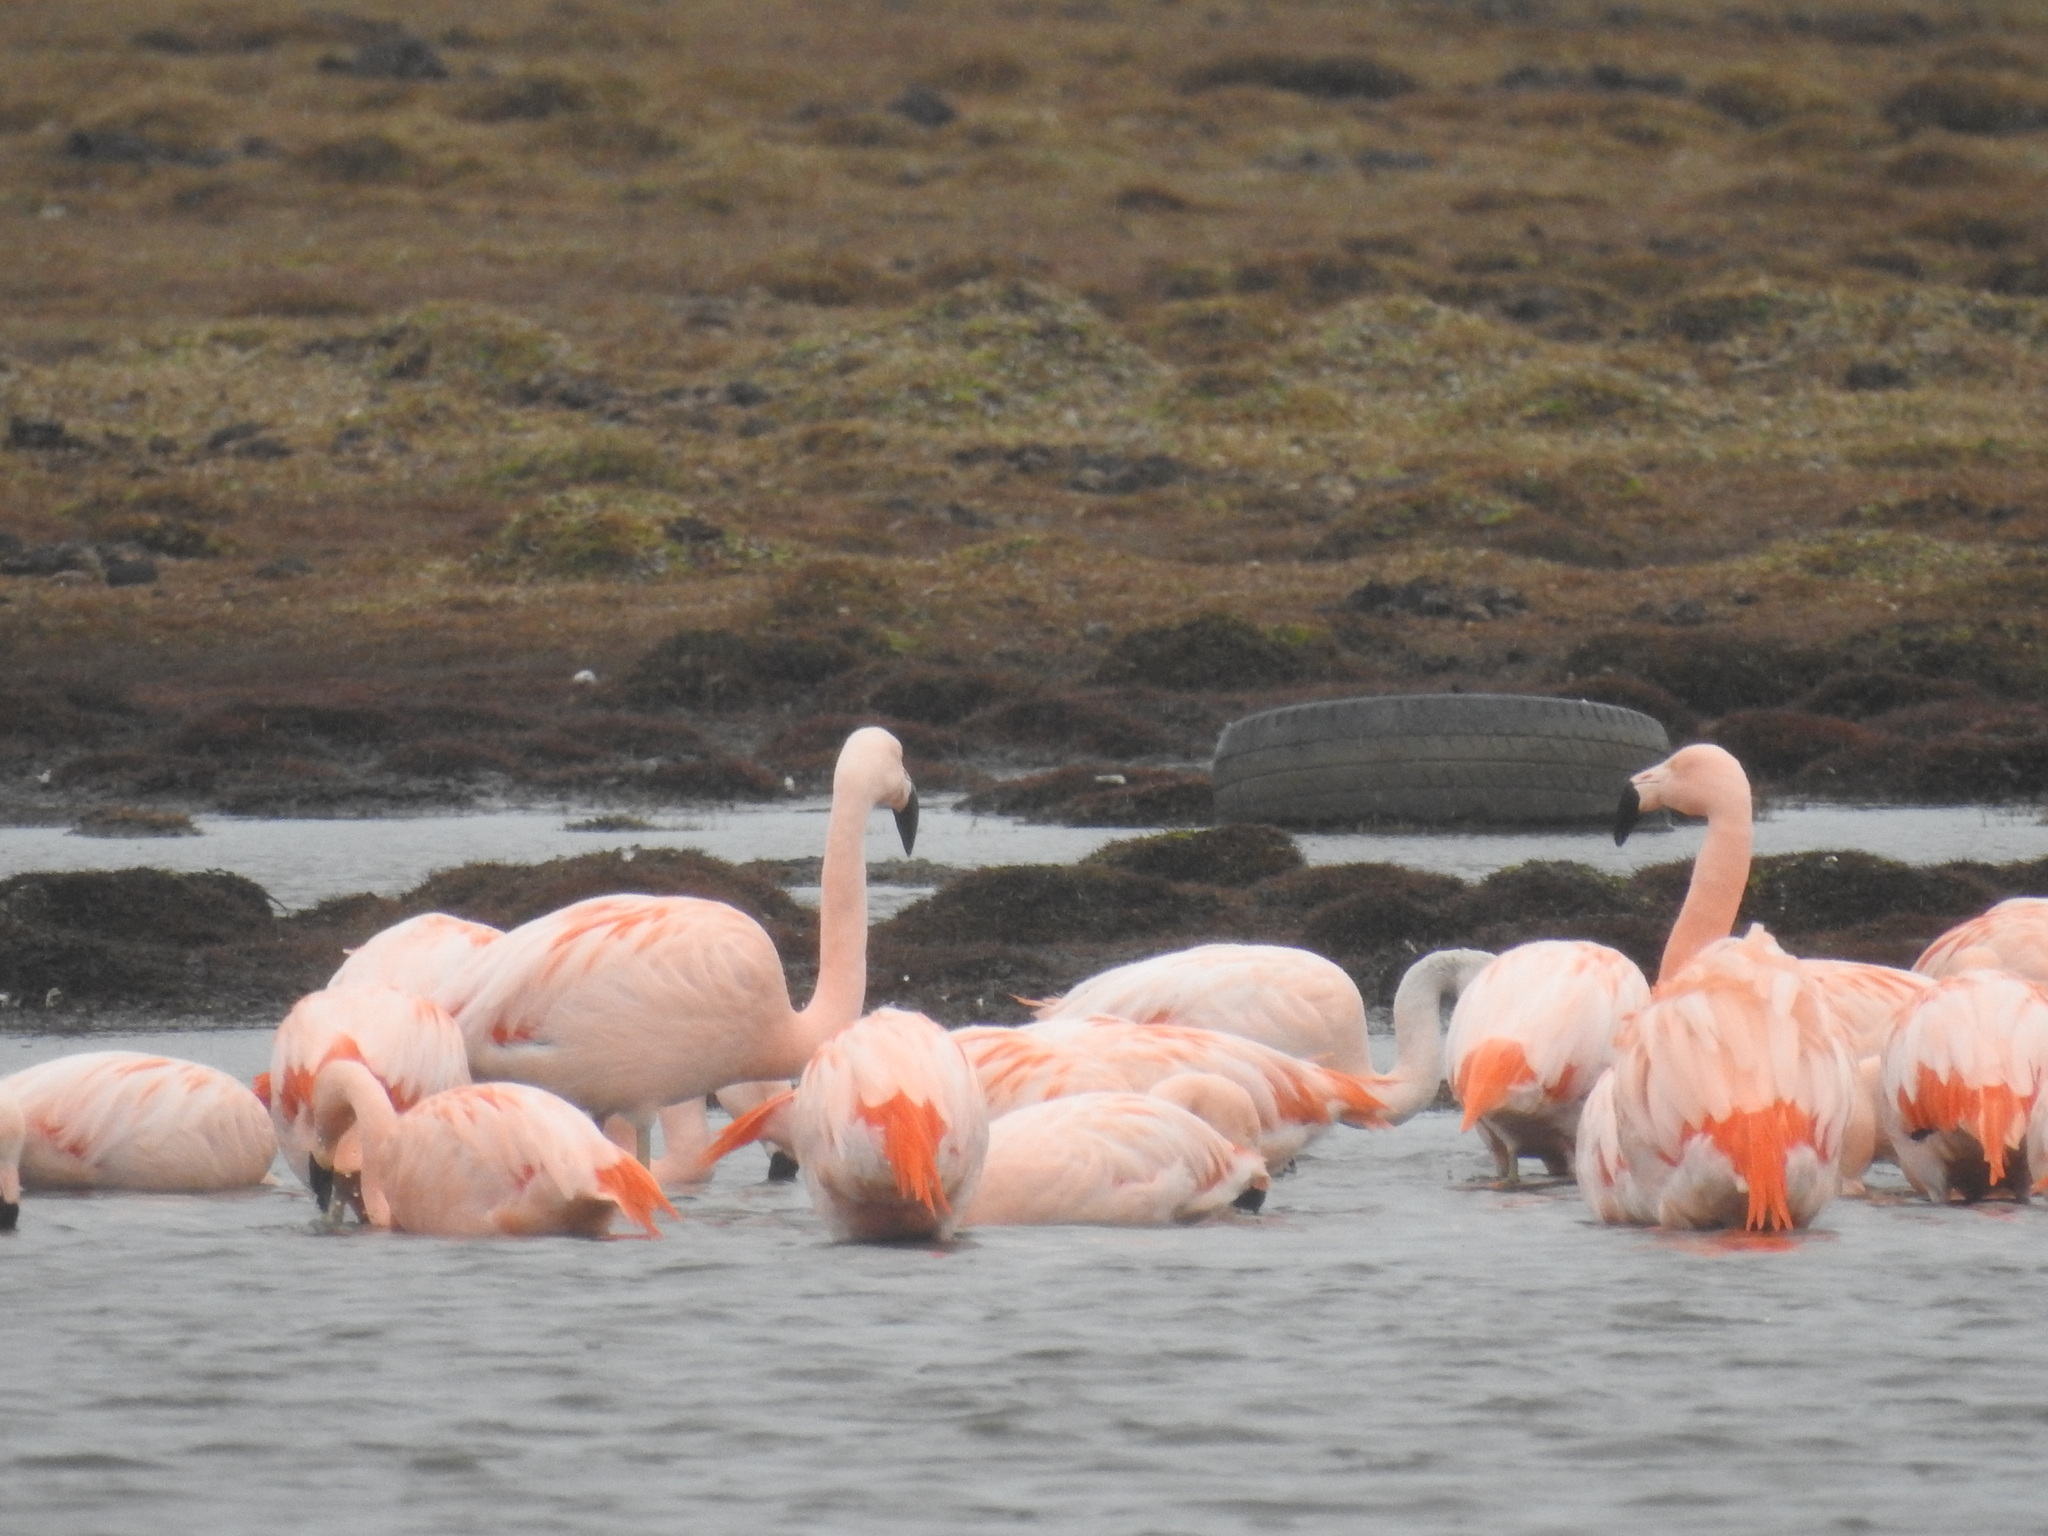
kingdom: Animalia
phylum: Chordata
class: Aves
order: Phoenicopteriformes
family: Phoenicopteridae
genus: Phoenicopterus
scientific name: Phoenicopterus chilensis
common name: Chilean flamingo
